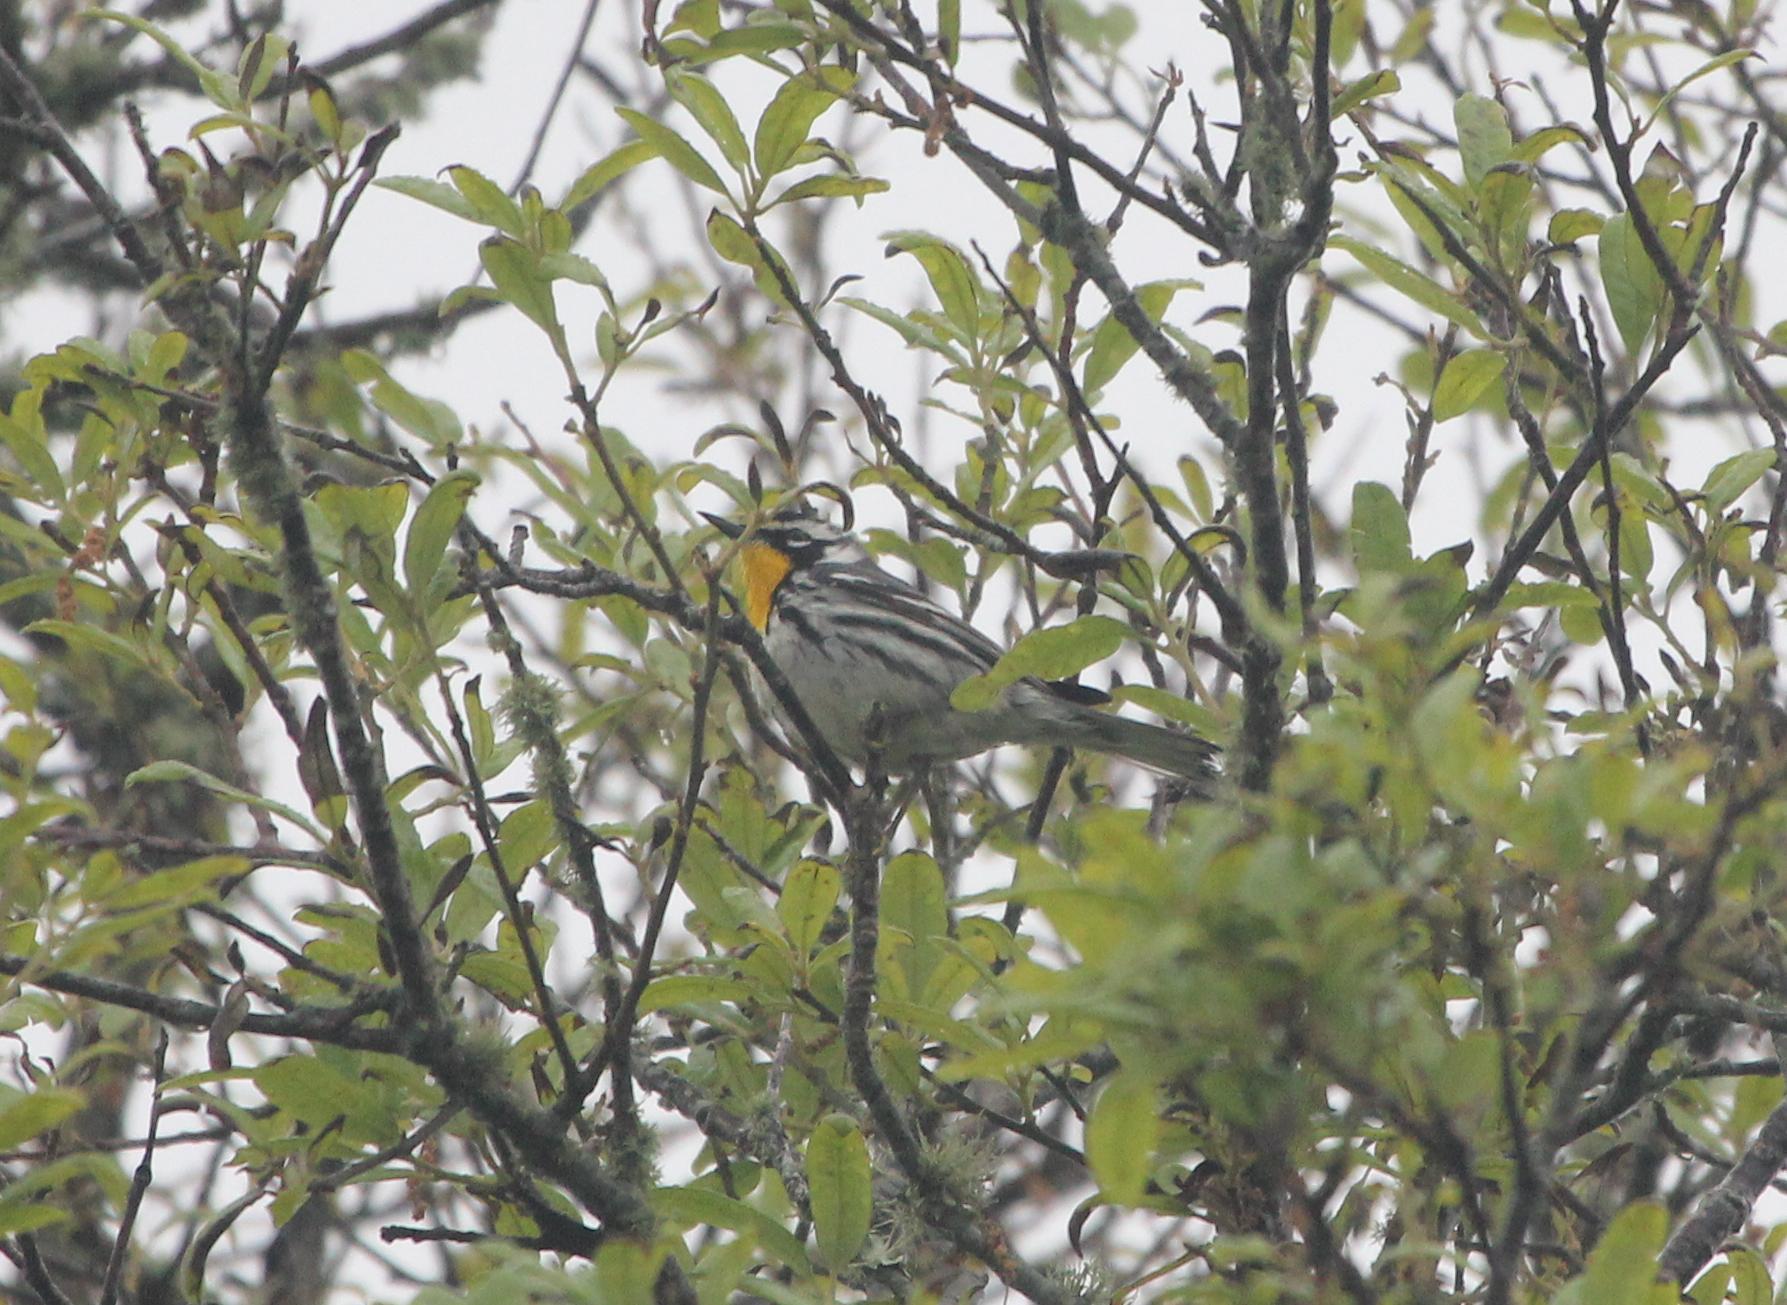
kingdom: Animalia
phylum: Chordata
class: Aves
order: Passeriformes
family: Parulidae
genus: Setophaga
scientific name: Setophaga dominica
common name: Yellow-throated warbler
